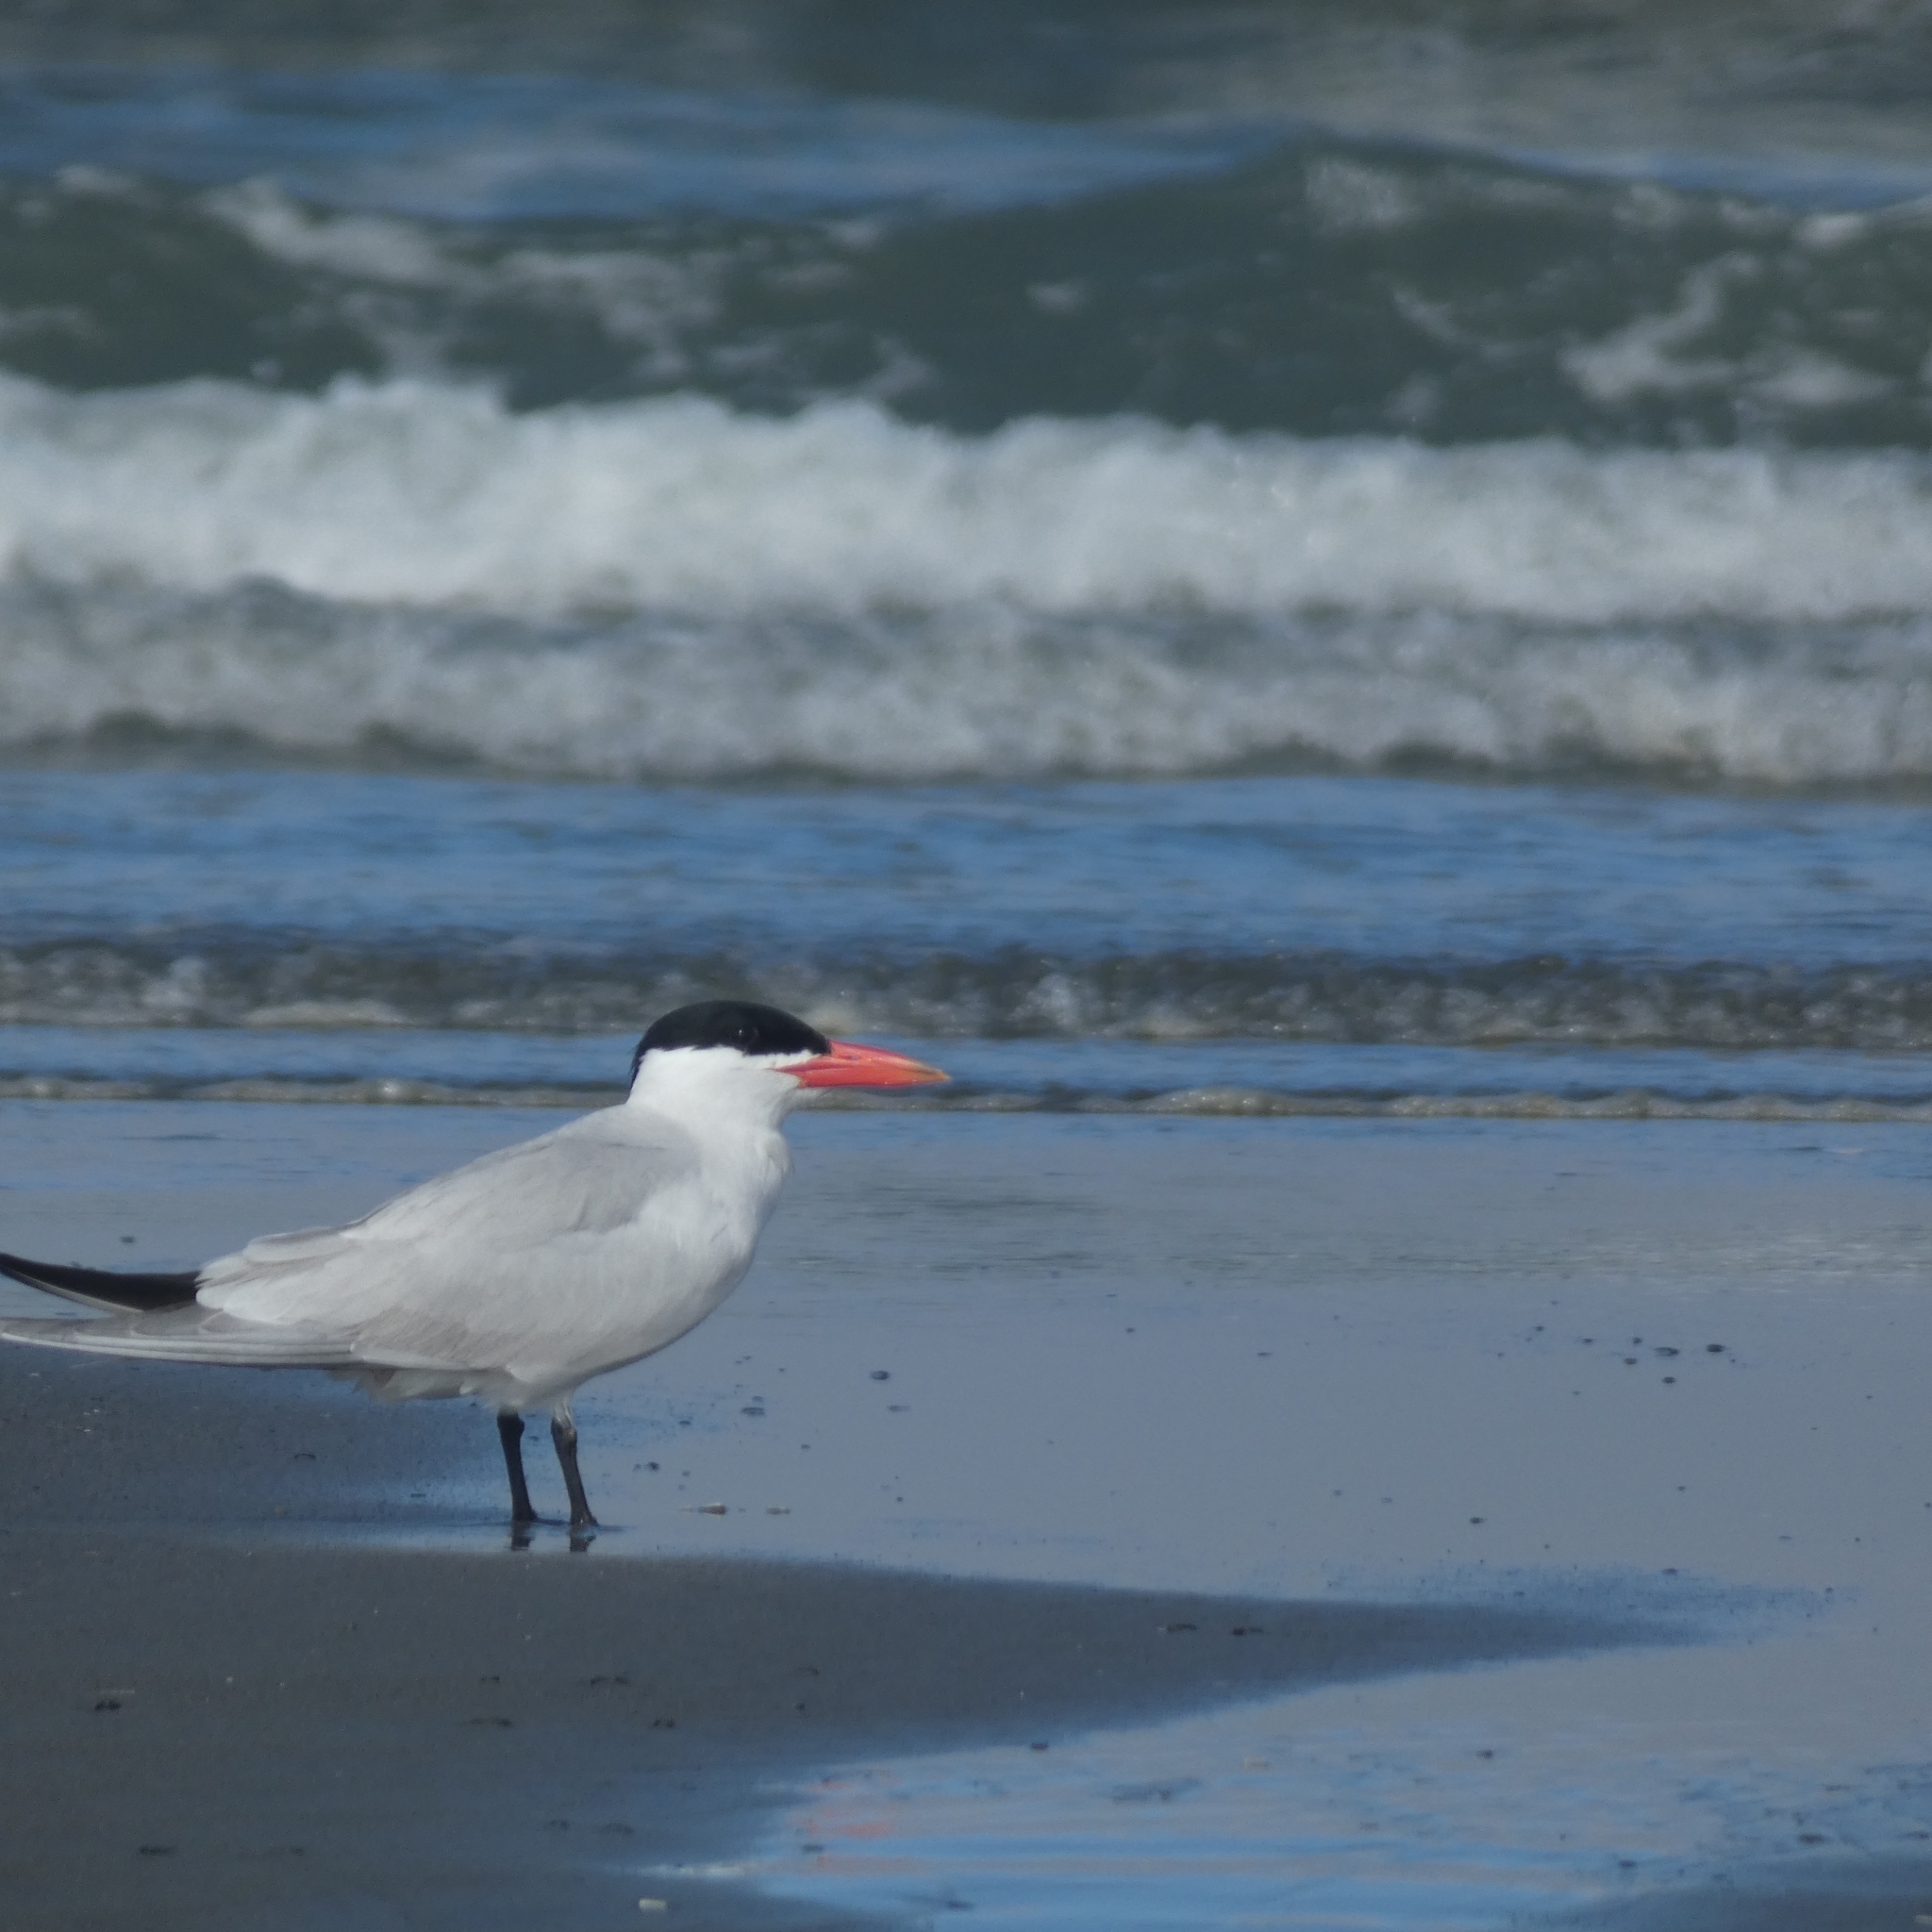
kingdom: Animalia
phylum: Chordata
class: Aves
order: Charadriiformes
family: Laridae
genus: Hydroprogne
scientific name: Hydroprogne caspia
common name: Caspian tern
